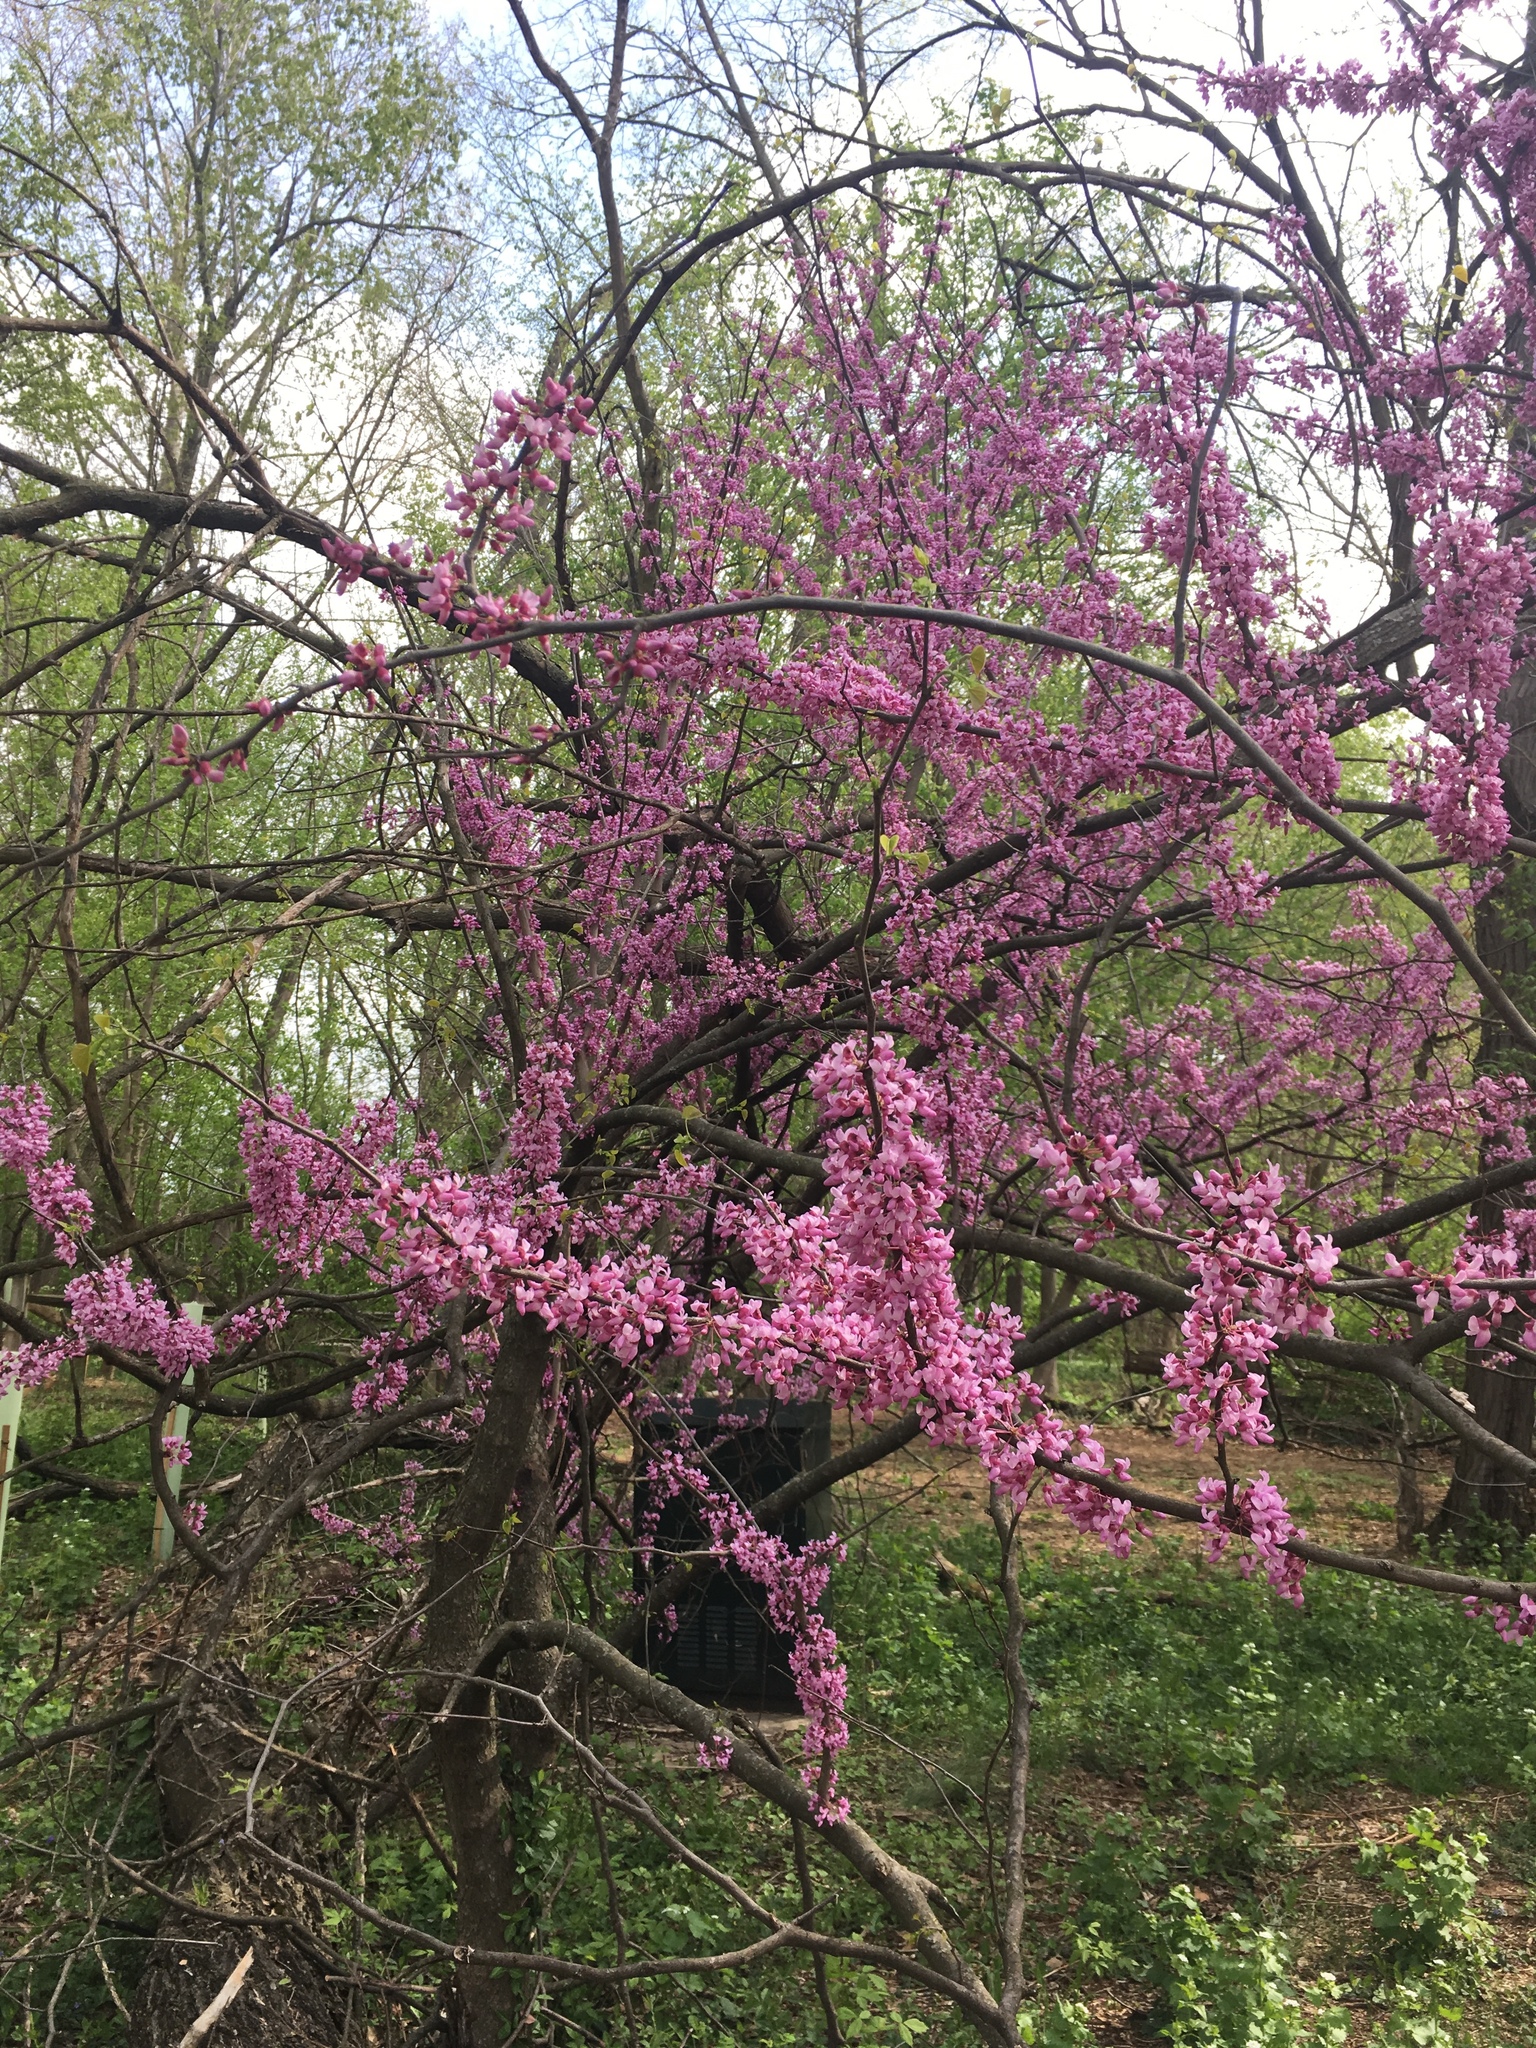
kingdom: Plantae
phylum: Tracheophyta
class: Magnoliopsida
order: Fabales
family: Fabaceae
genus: Cercis
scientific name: Cercis canadensis
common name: Eastern redbud
